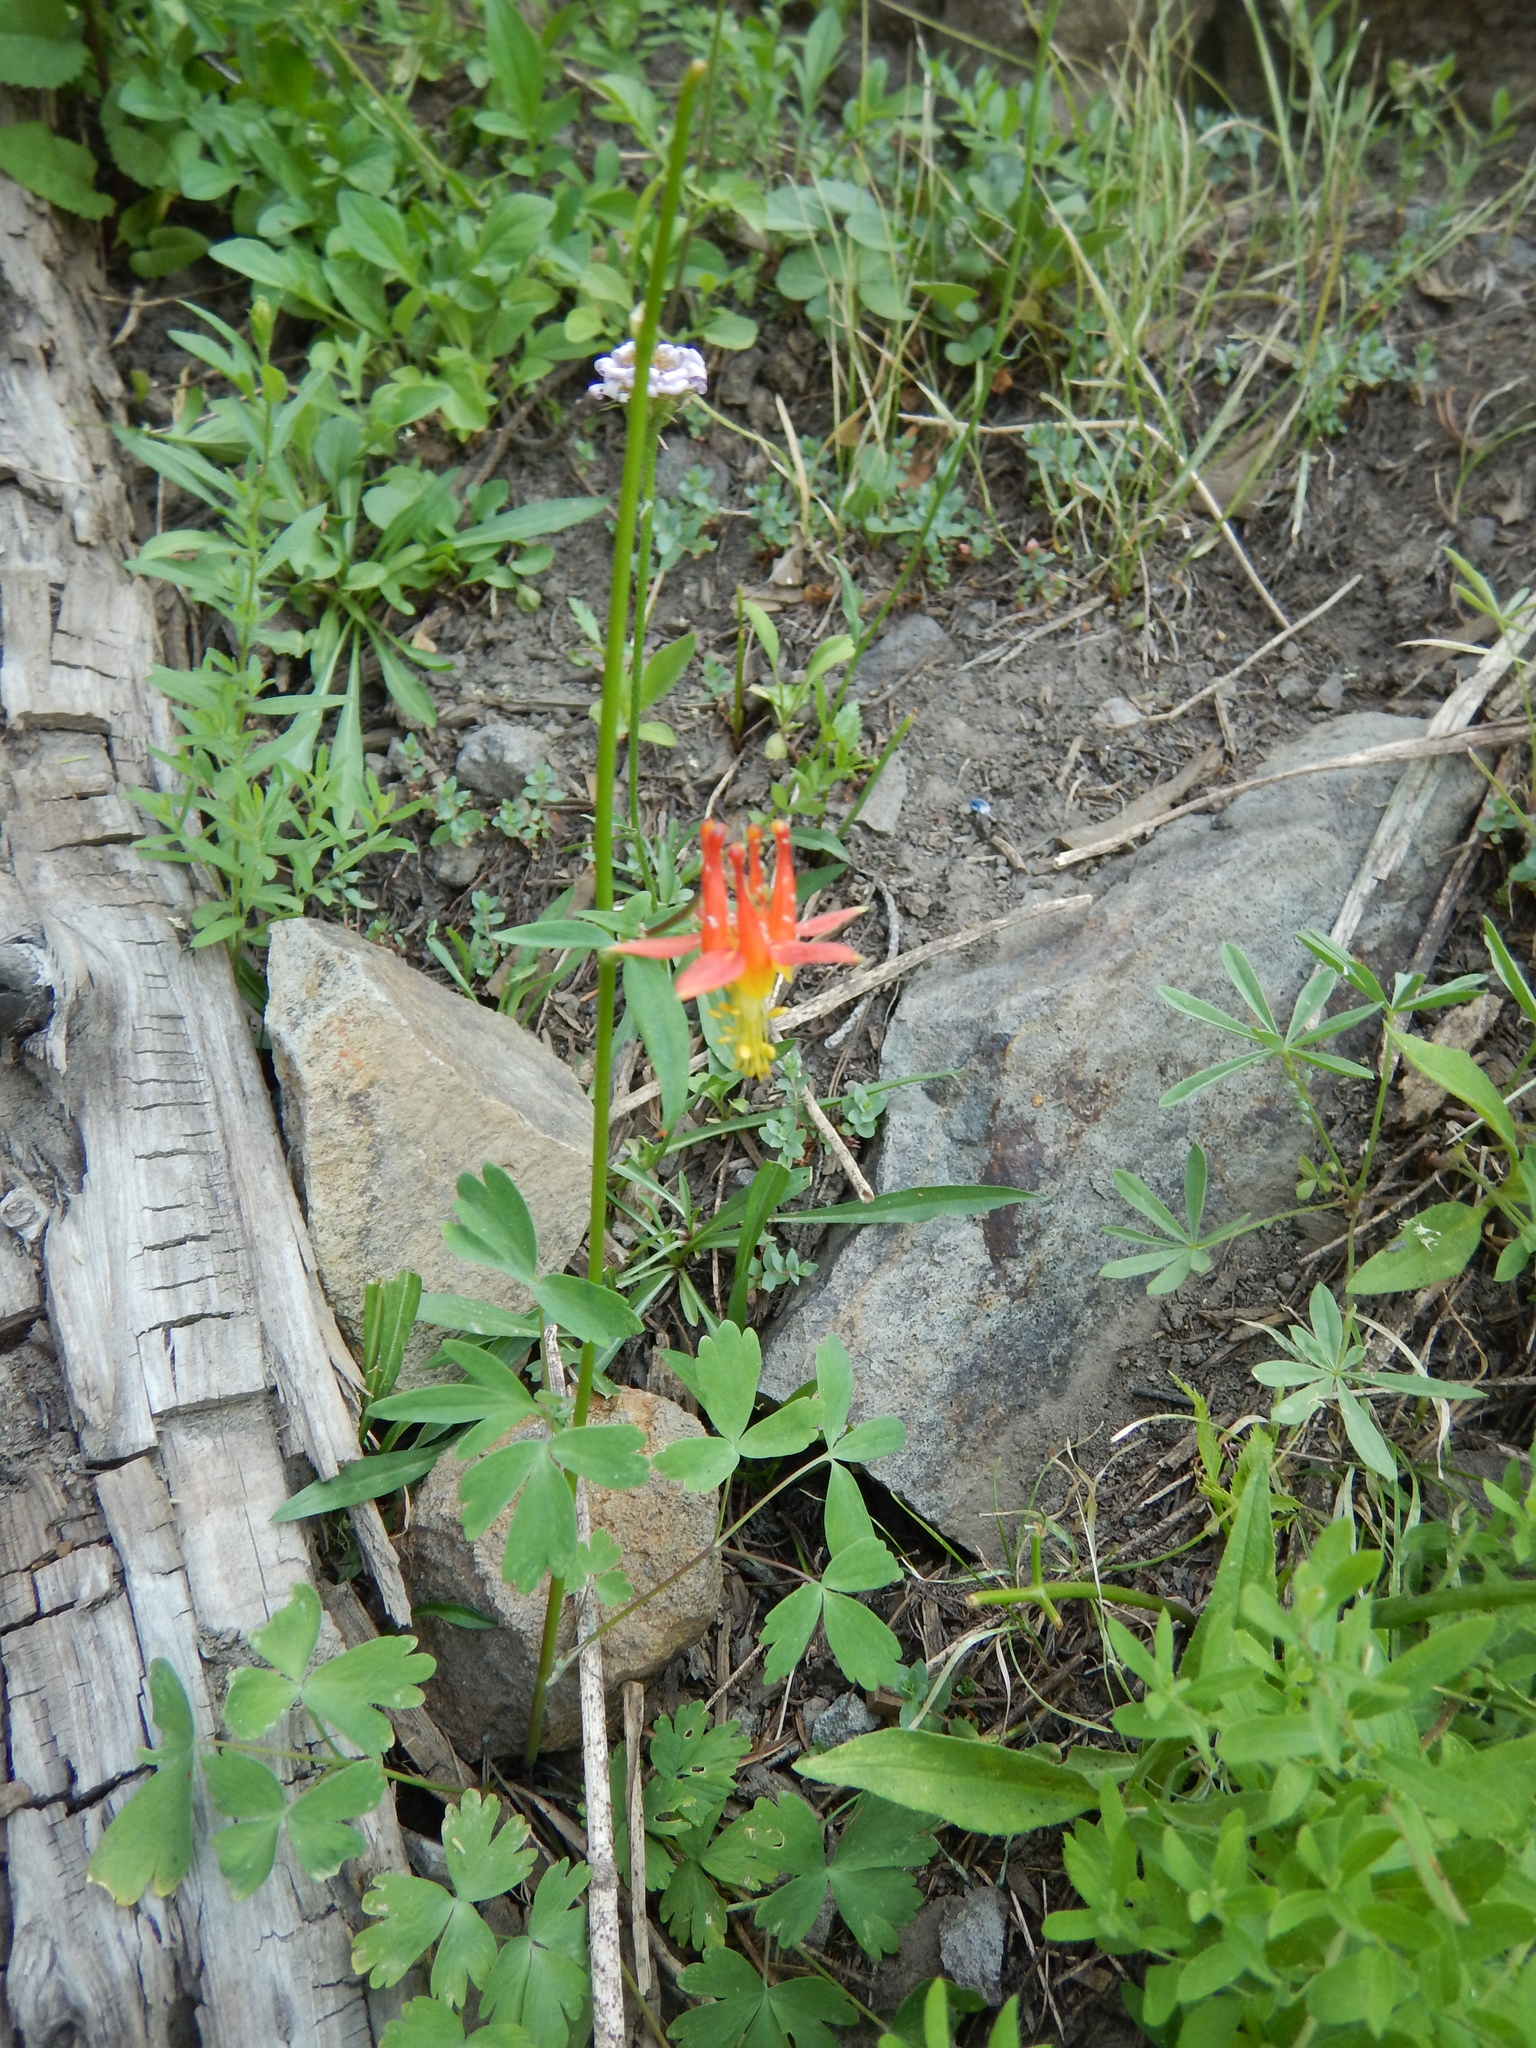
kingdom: Plantae
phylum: Tracheophyta
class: Magnoliopsida
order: Ranunculales
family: Ranunculaceae
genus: Aquilegia
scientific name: Aquilegia formosa
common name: Sitka columbine
